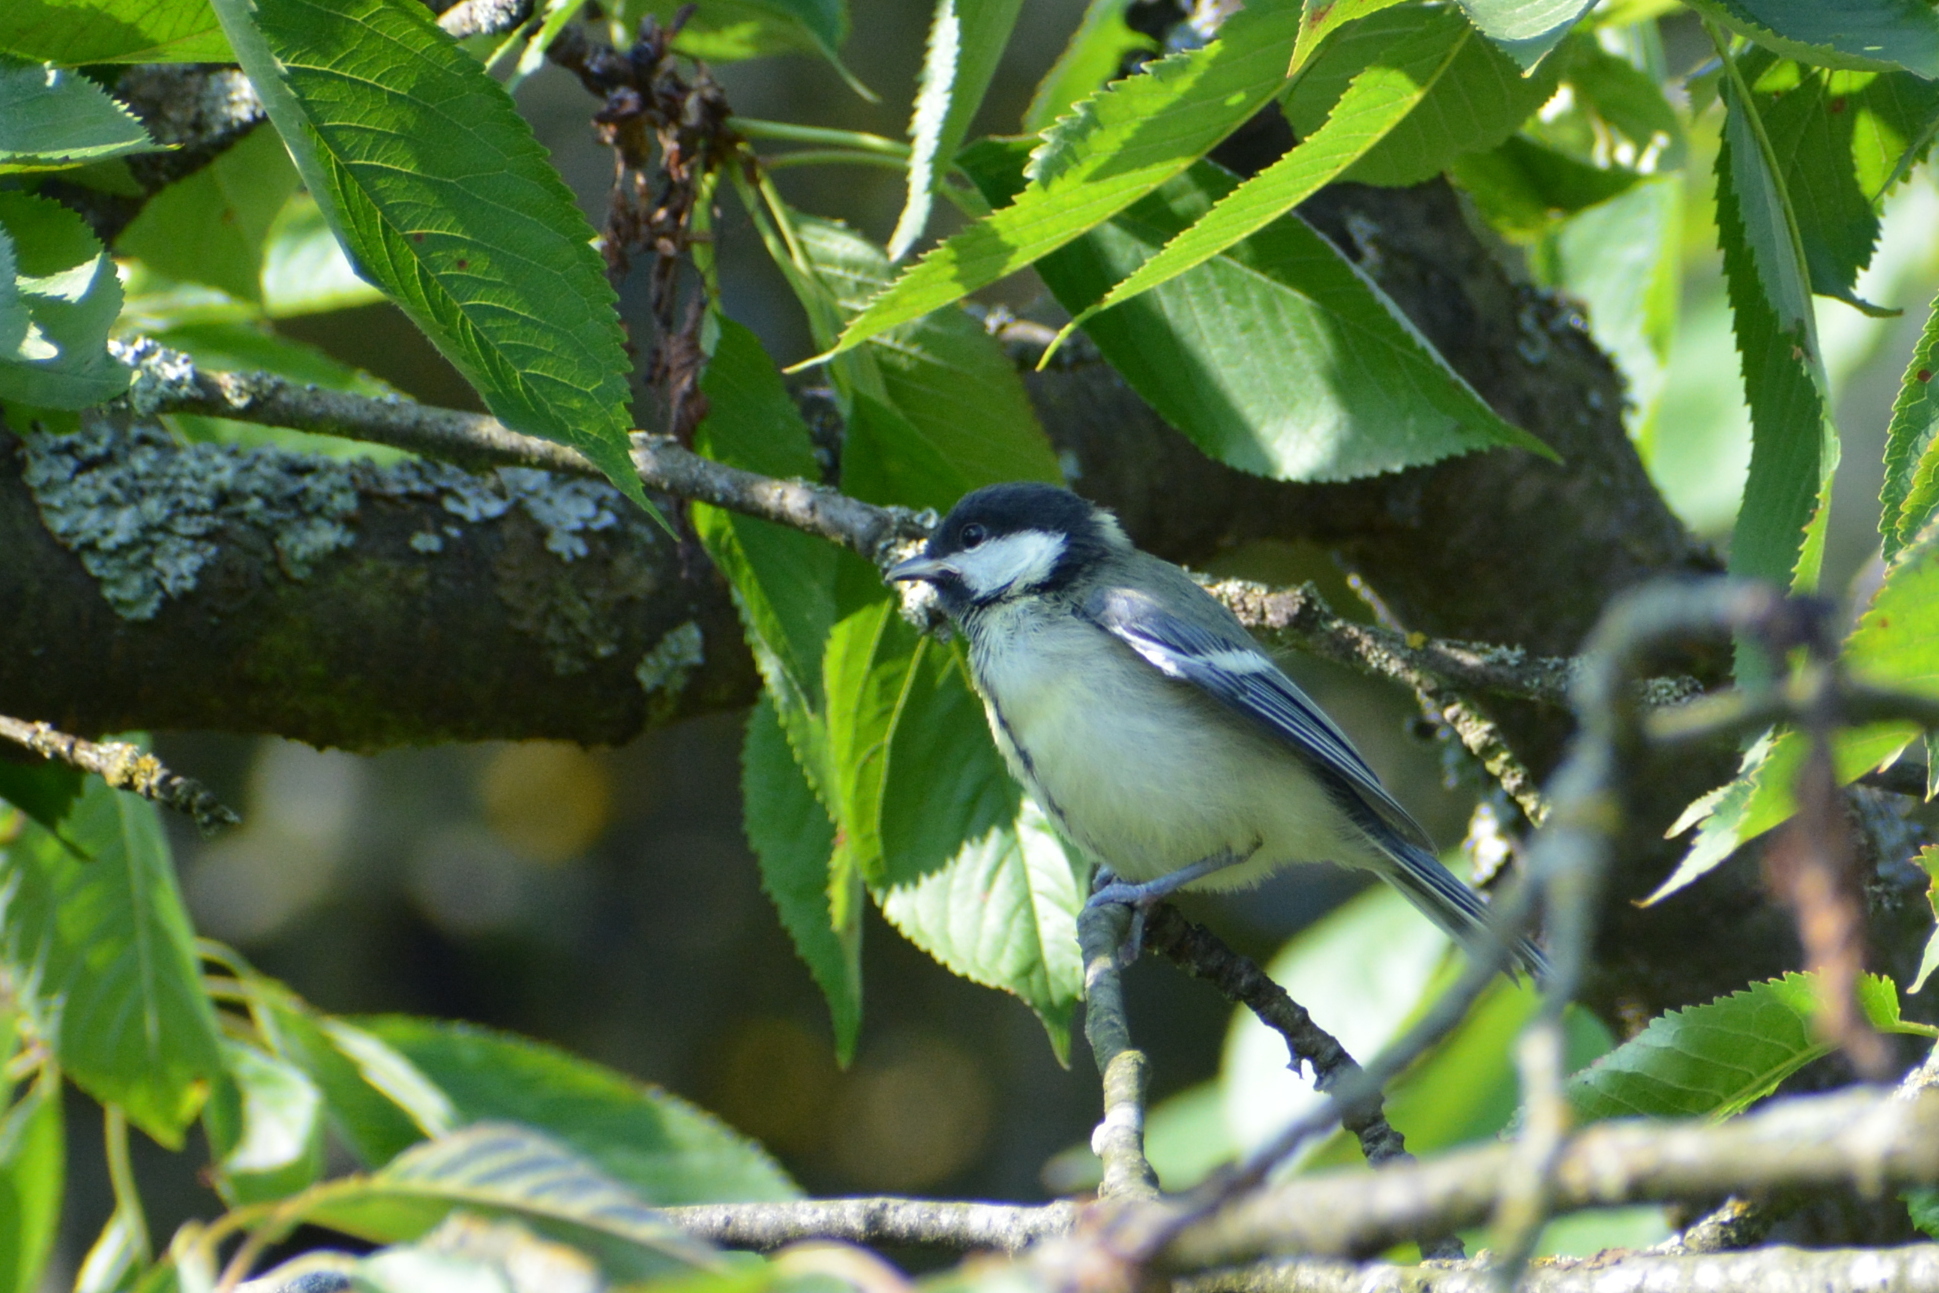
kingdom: Animalia
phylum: Chordata
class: Aves
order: Passeriformes
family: Paridae
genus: Parus
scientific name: Parus major
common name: Great tit
